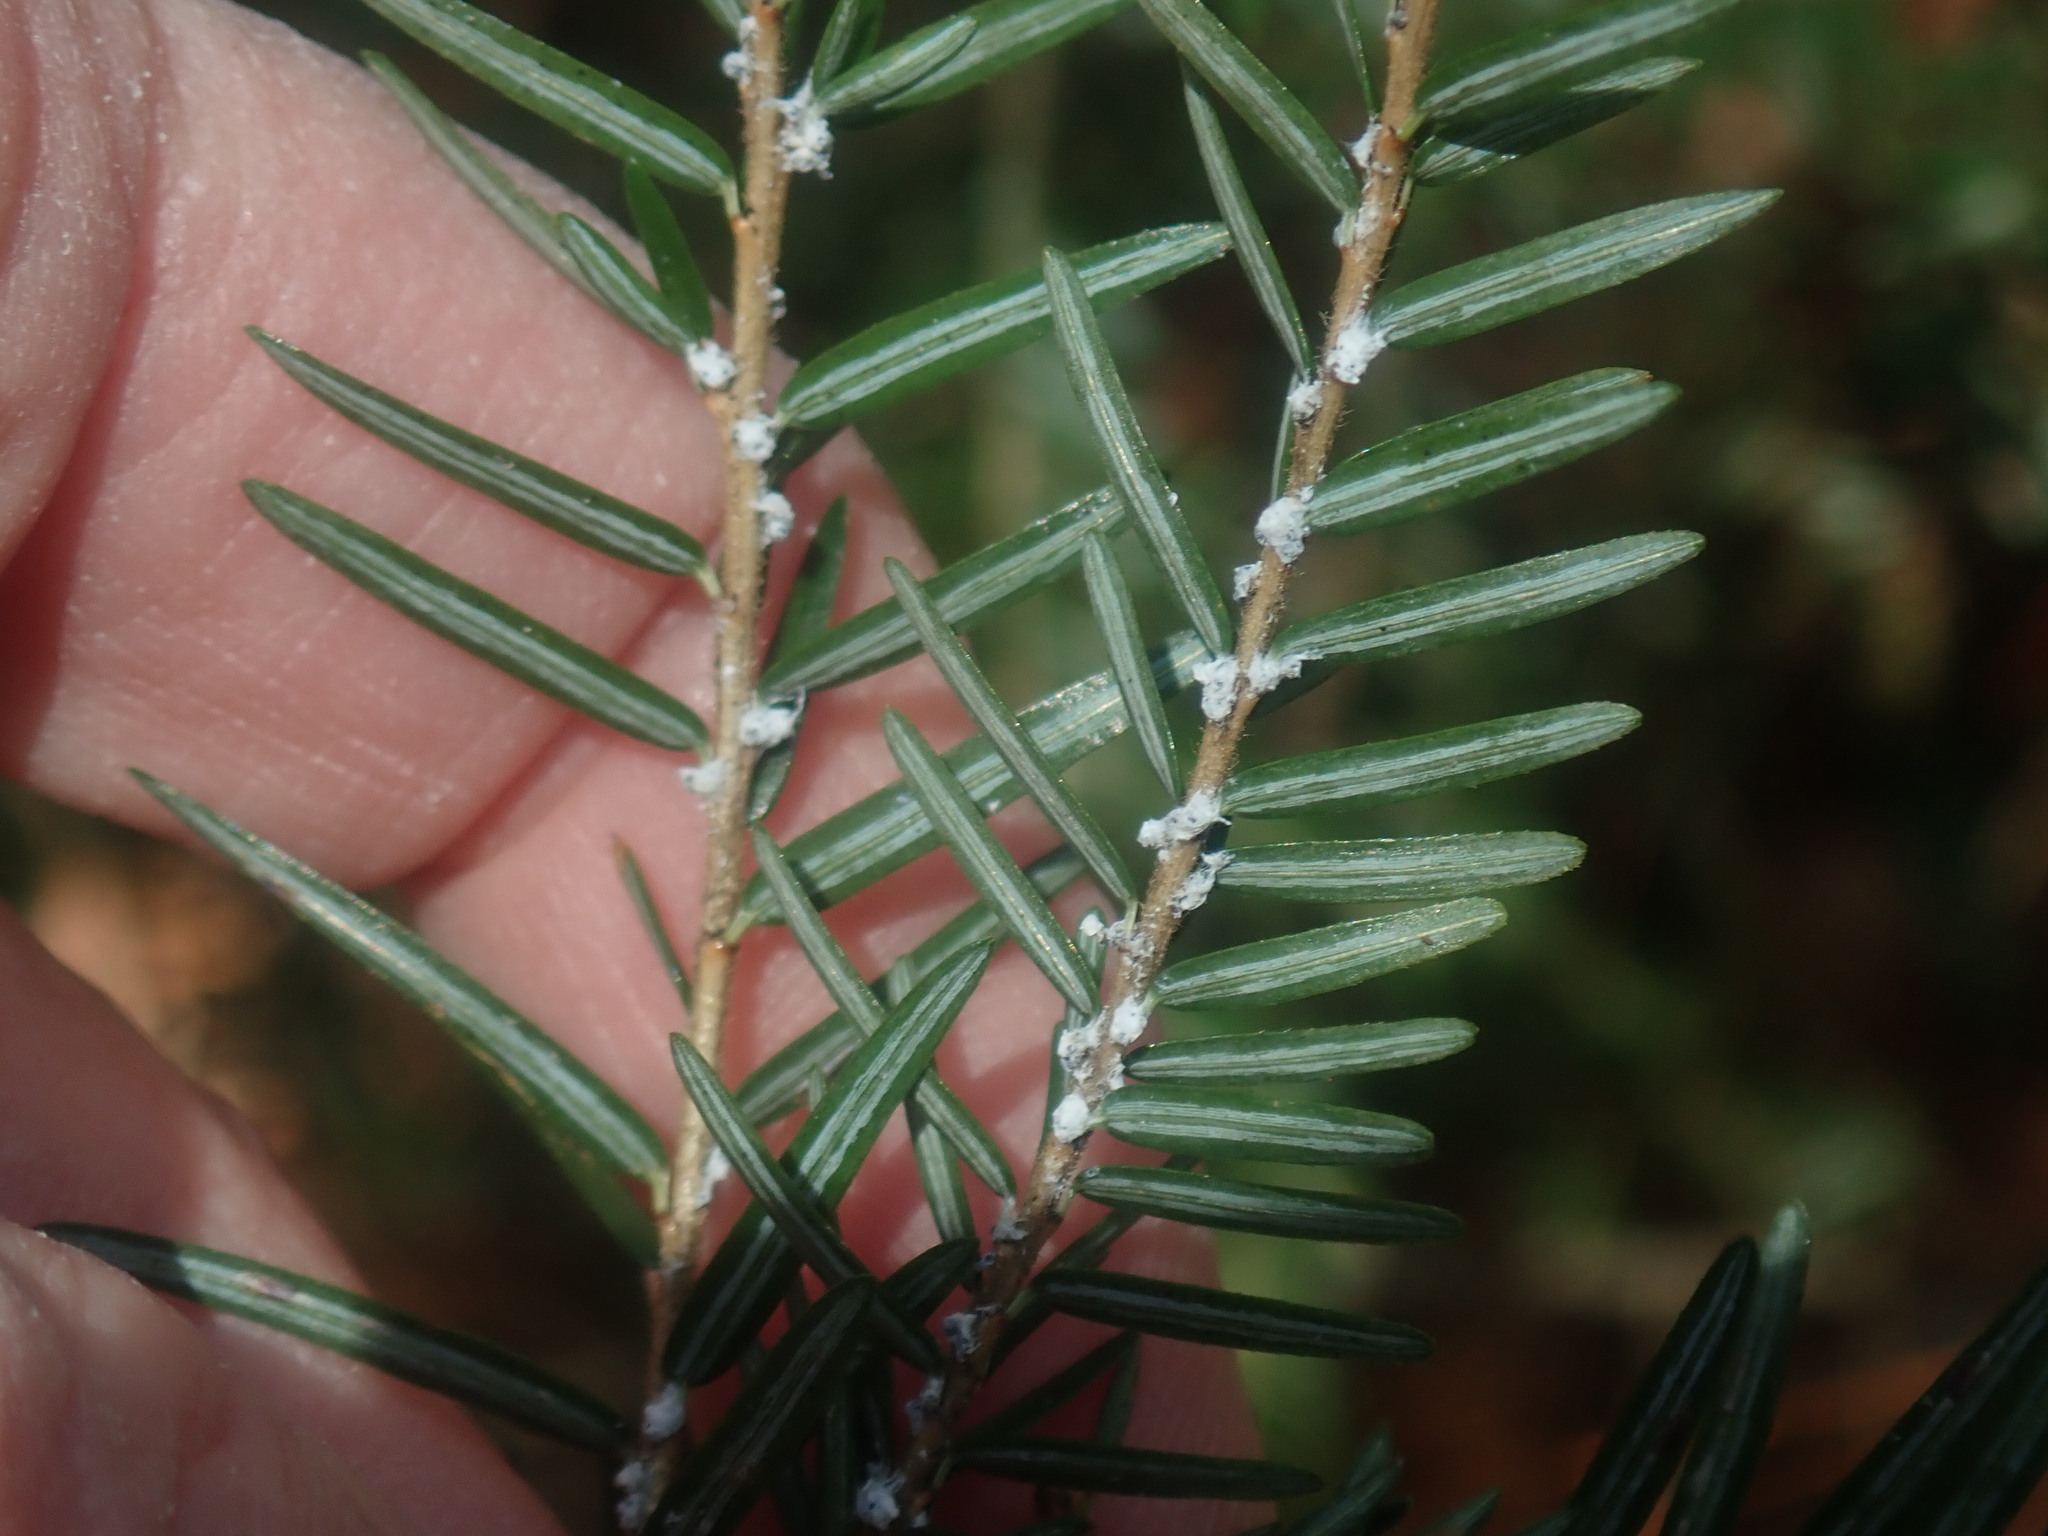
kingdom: Animalia
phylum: Arthropoda
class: Insecta
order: Hemiptera
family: Adelgidae
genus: Adelges
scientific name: Adelges tsugae
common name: Hemlock woolly adelgid
